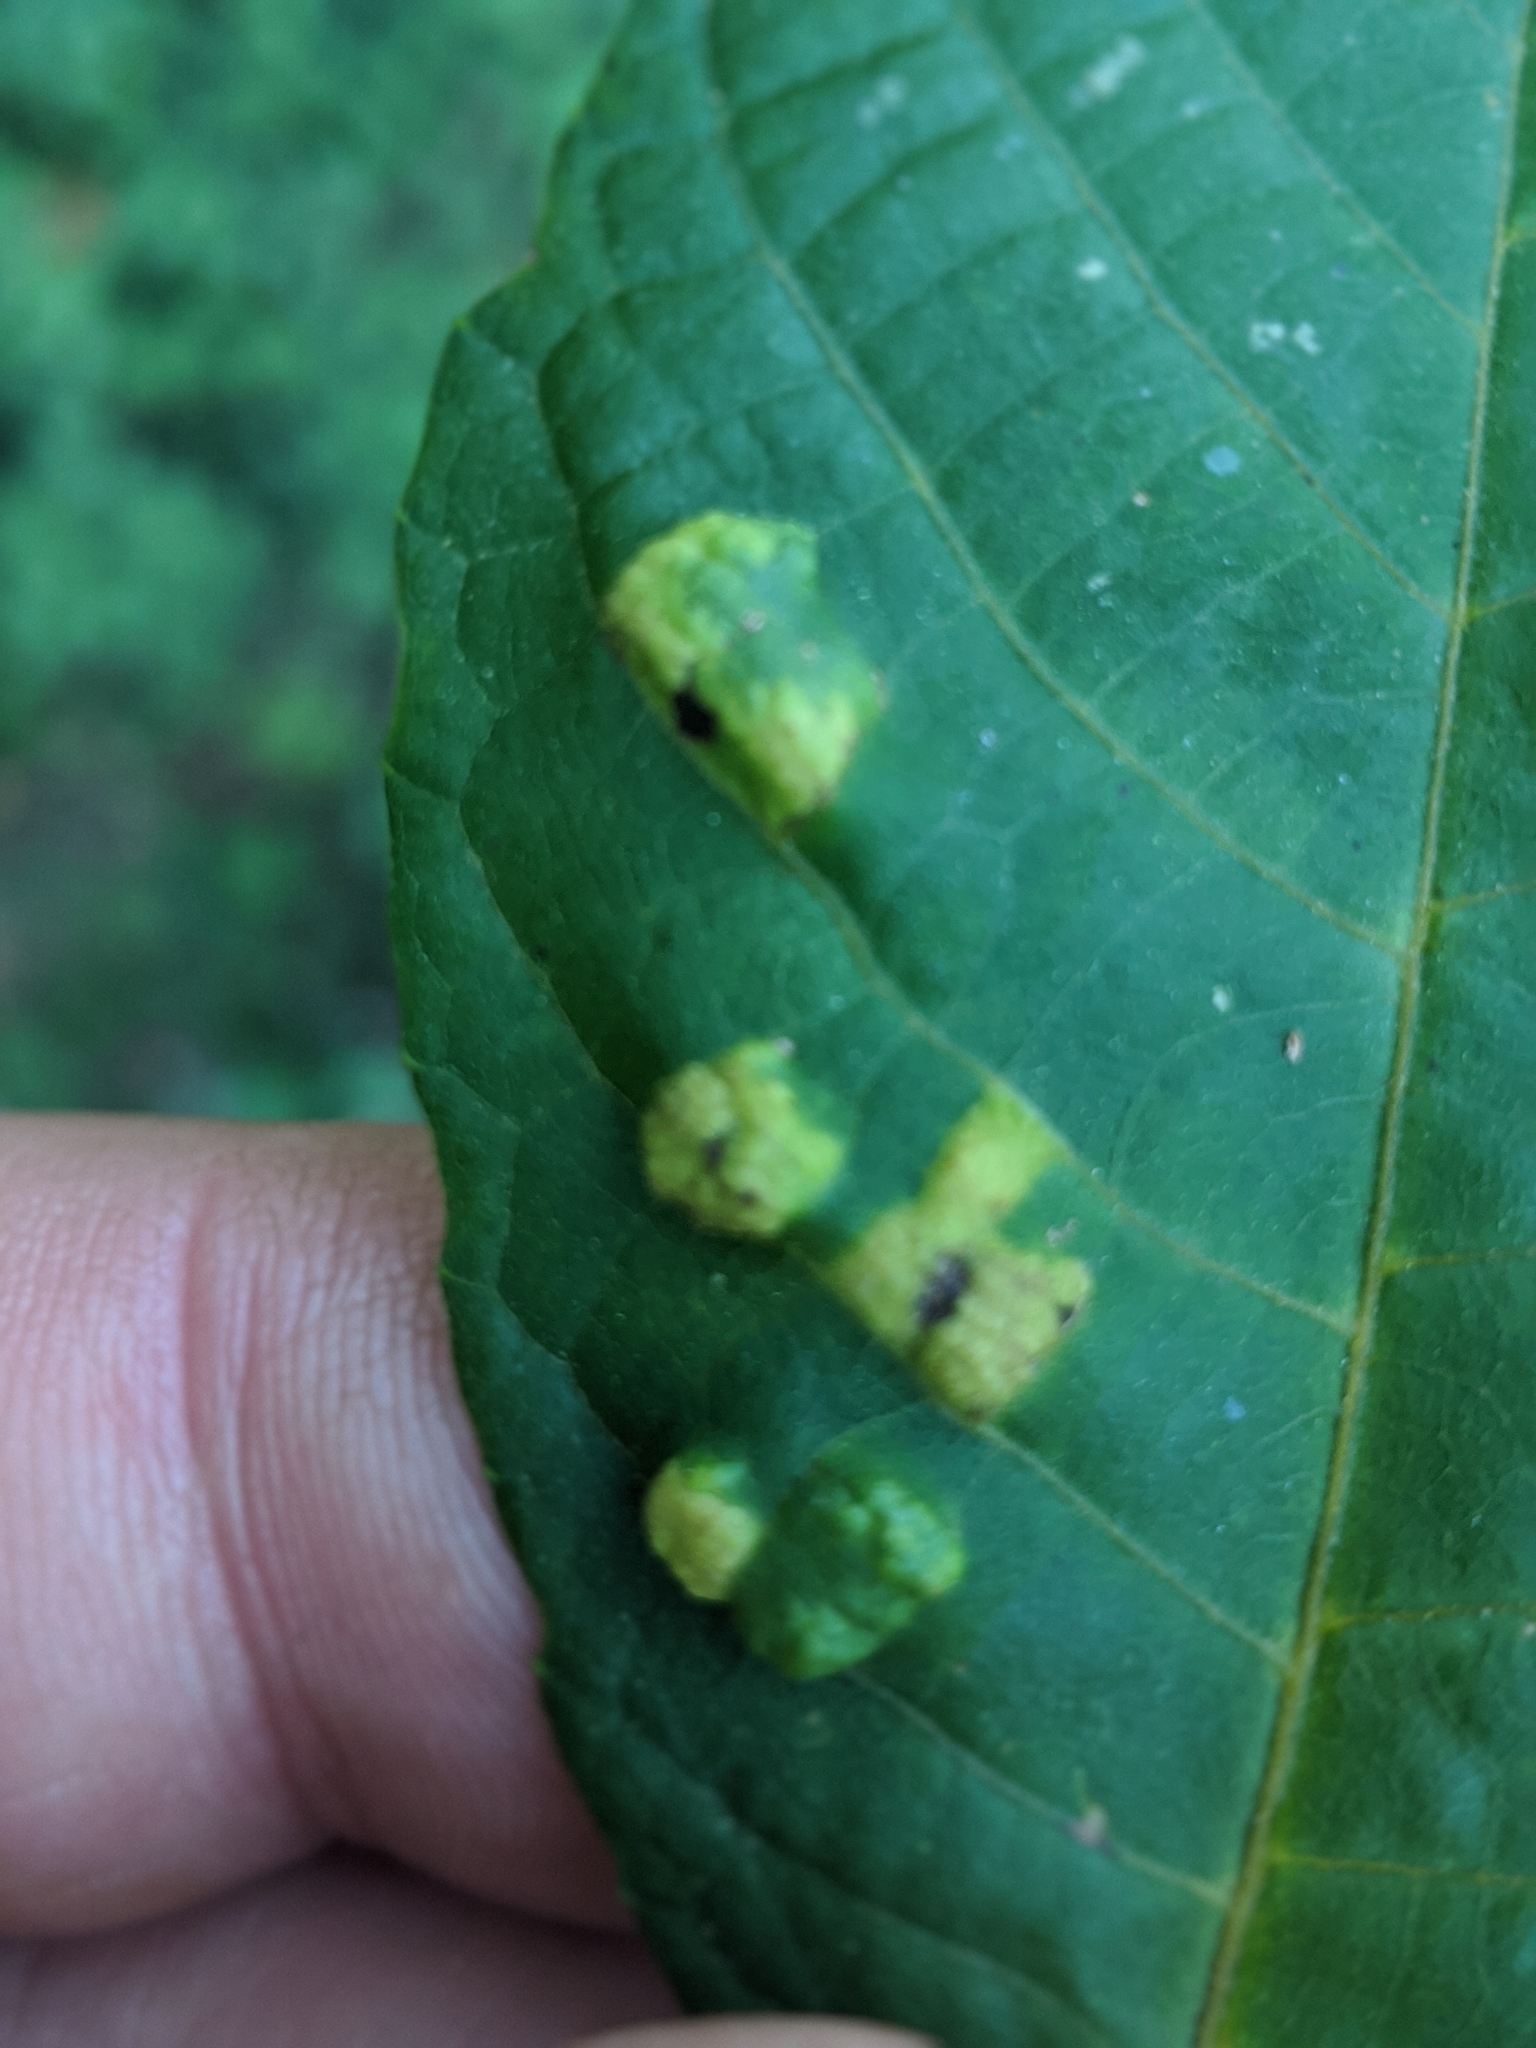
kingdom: Animalia
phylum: Arthropoda
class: Arachnida
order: Trombidiformes
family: Eriophyidae
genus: Aceria
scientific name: Aceria erinea
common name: Persian walnut erineum mite
